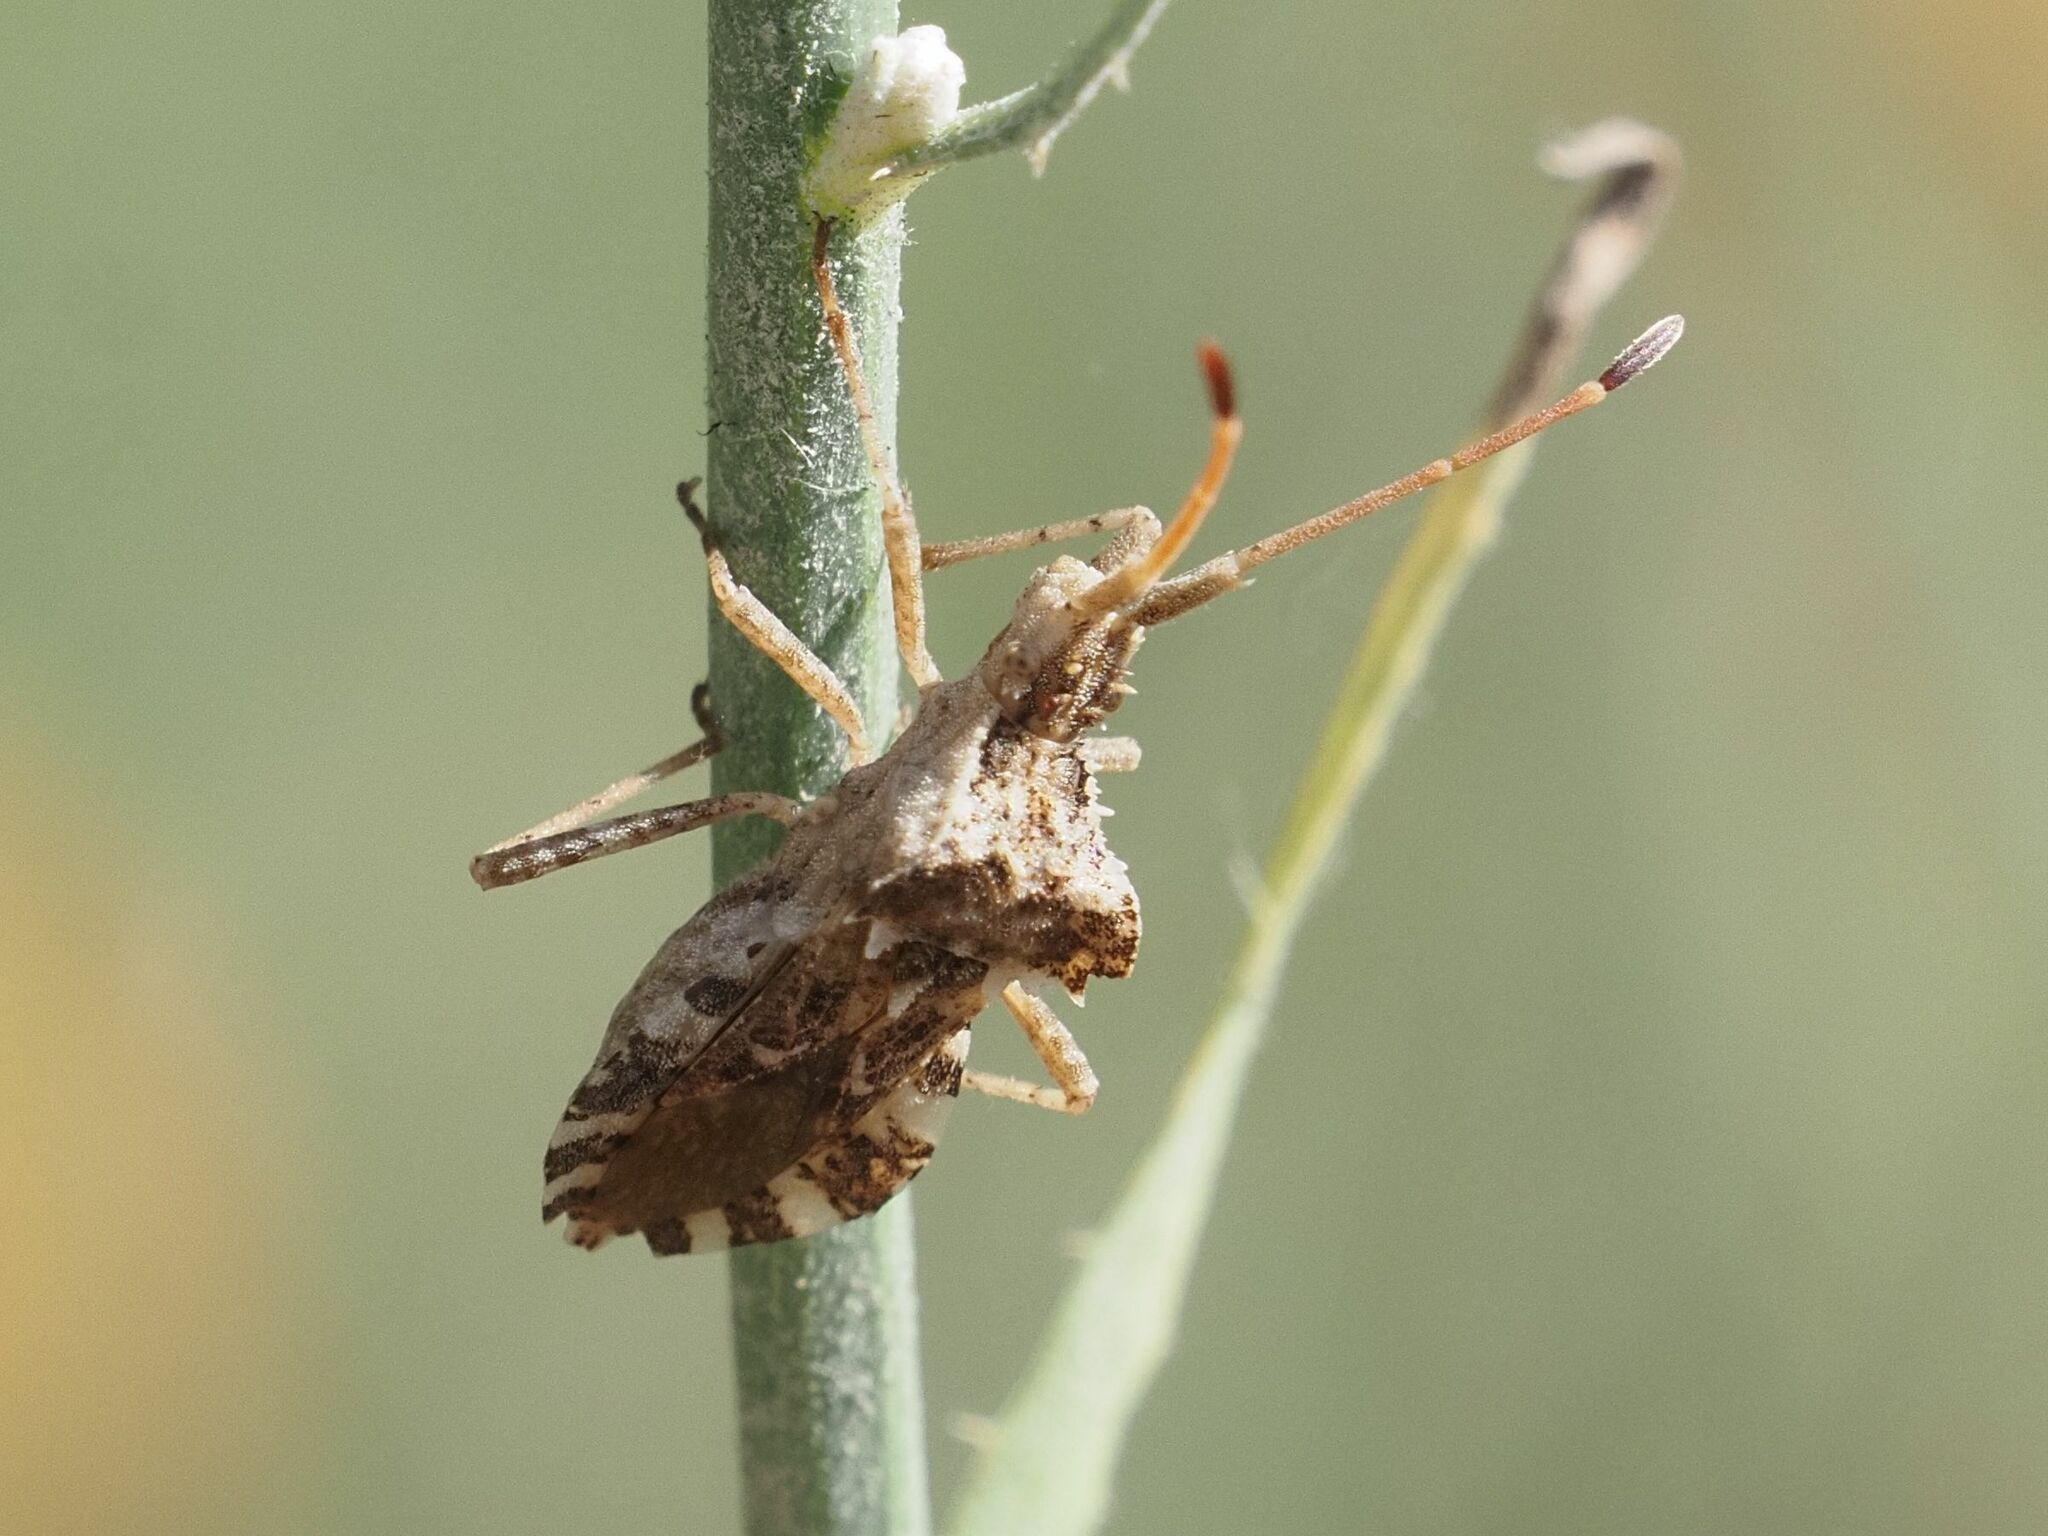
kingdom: Animalia
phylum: Arthropoda
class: Insecta
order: Hemiptera
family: Coreidae
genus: Centrocoris
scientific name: Centrocoris spiniger
